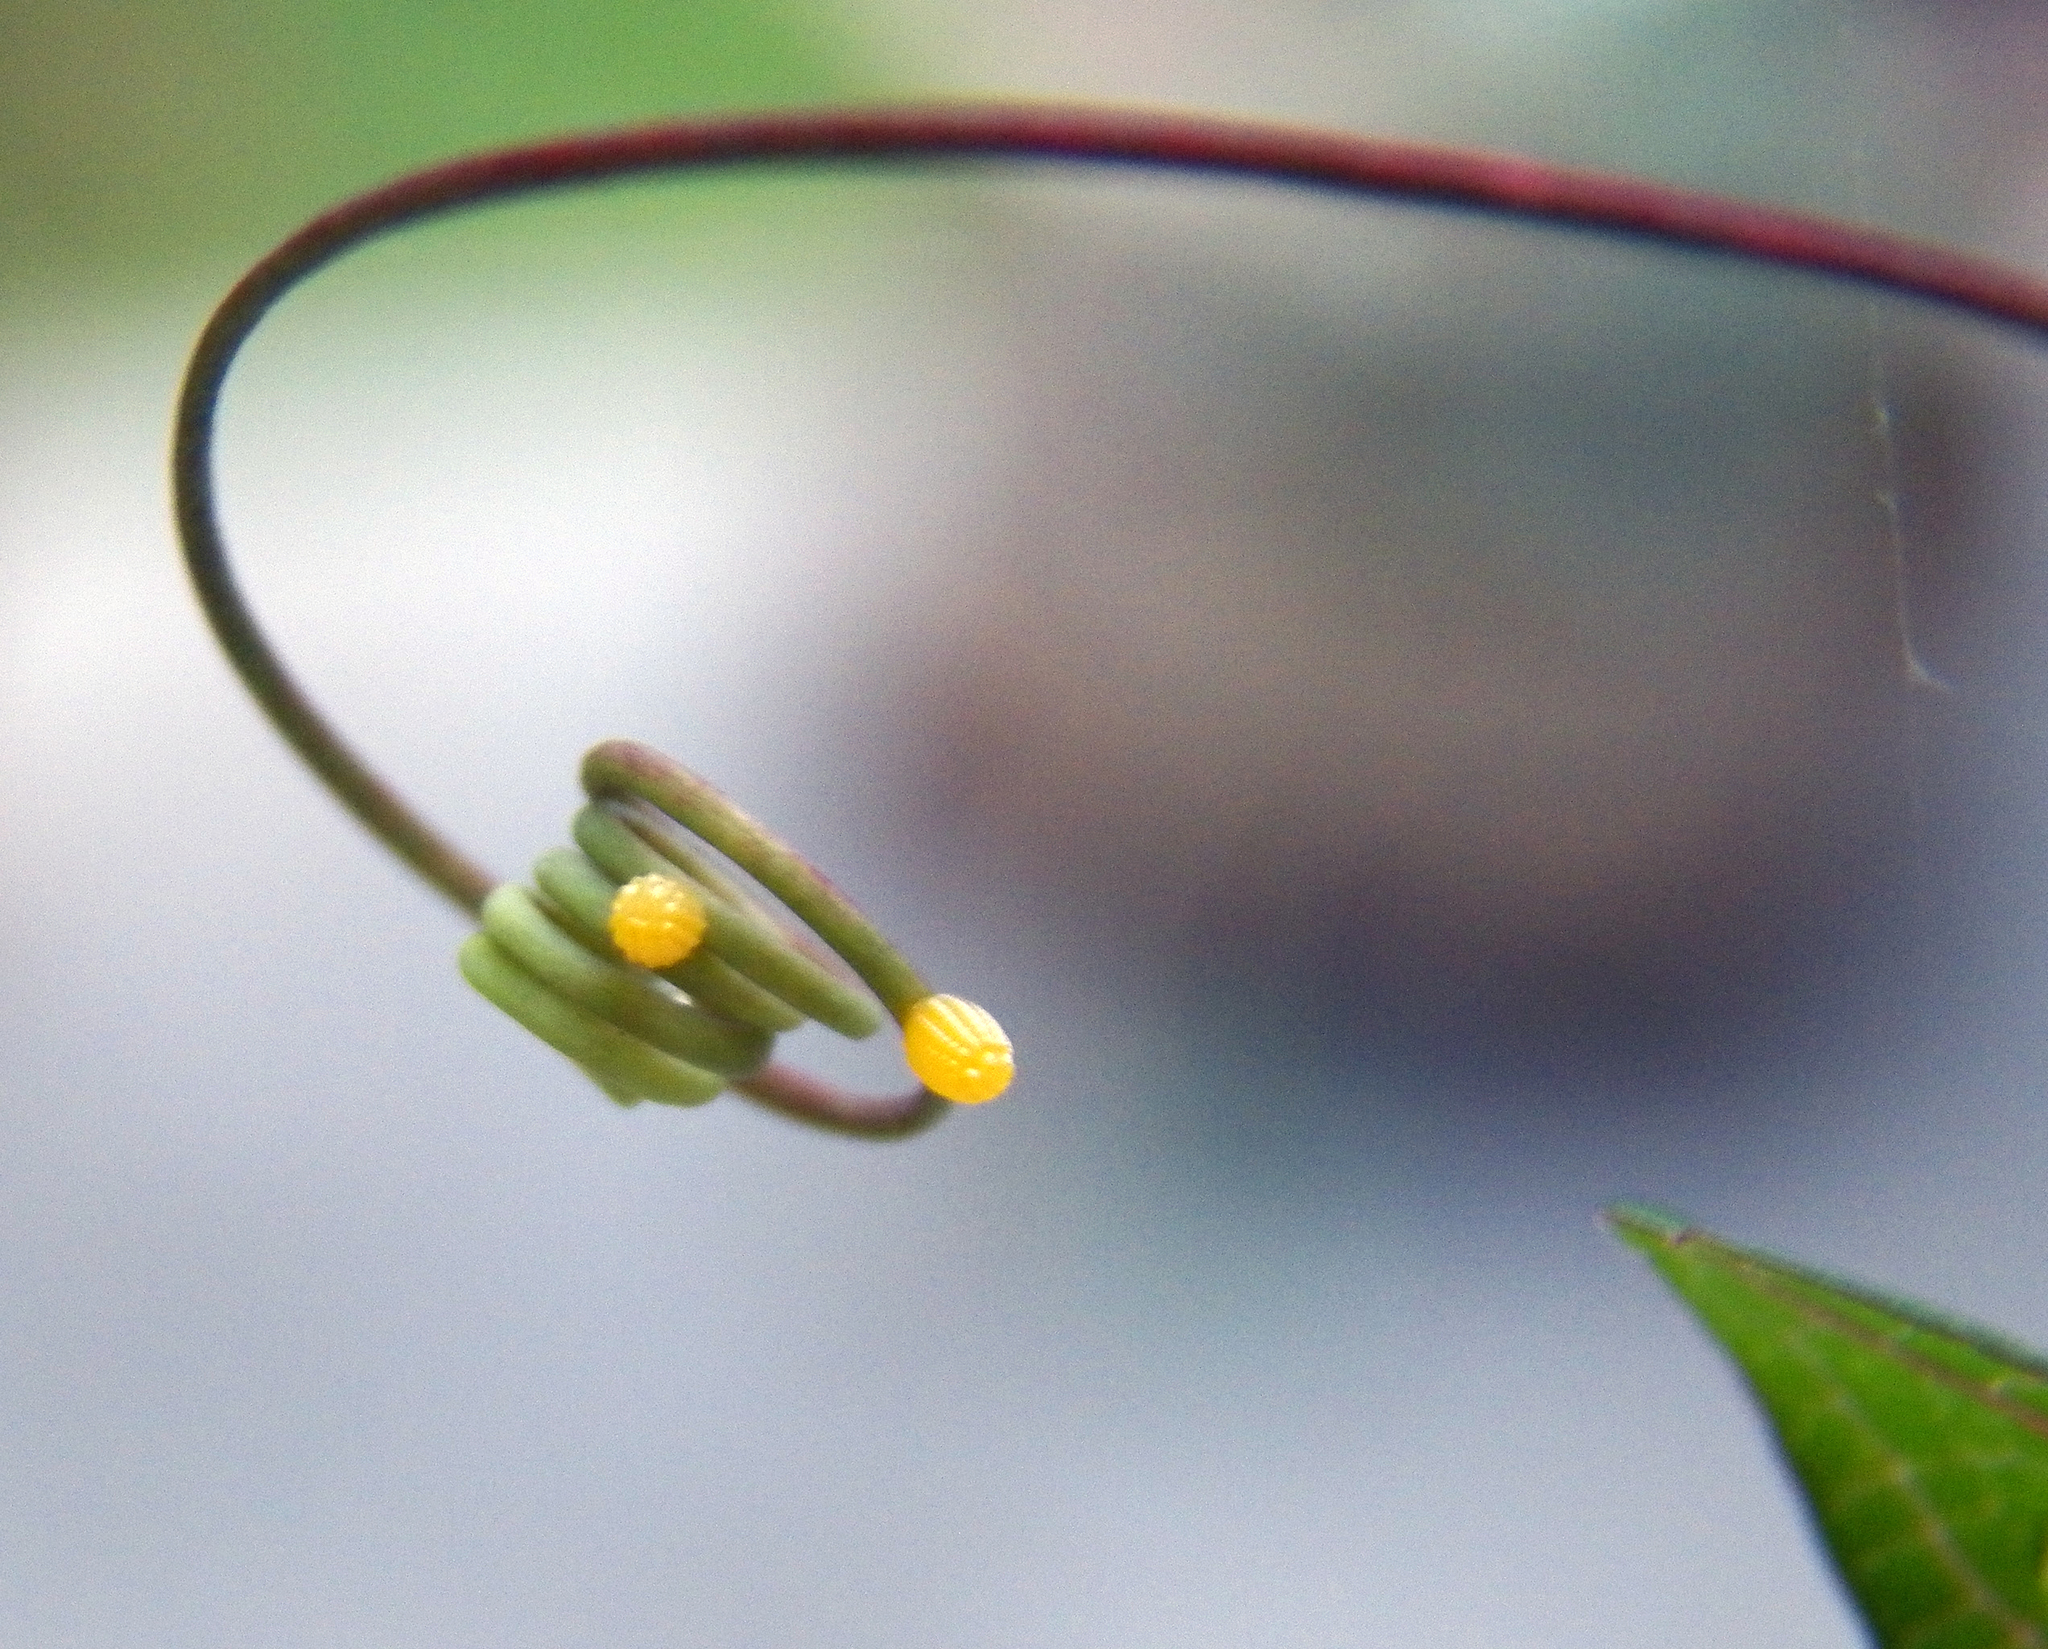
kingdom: Animalia
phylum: Arthropoda
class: Insecta
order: Lepidoptera
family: Nymphalidae
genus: Dione
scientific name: Dione vanillae
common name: Gulf fritillary
